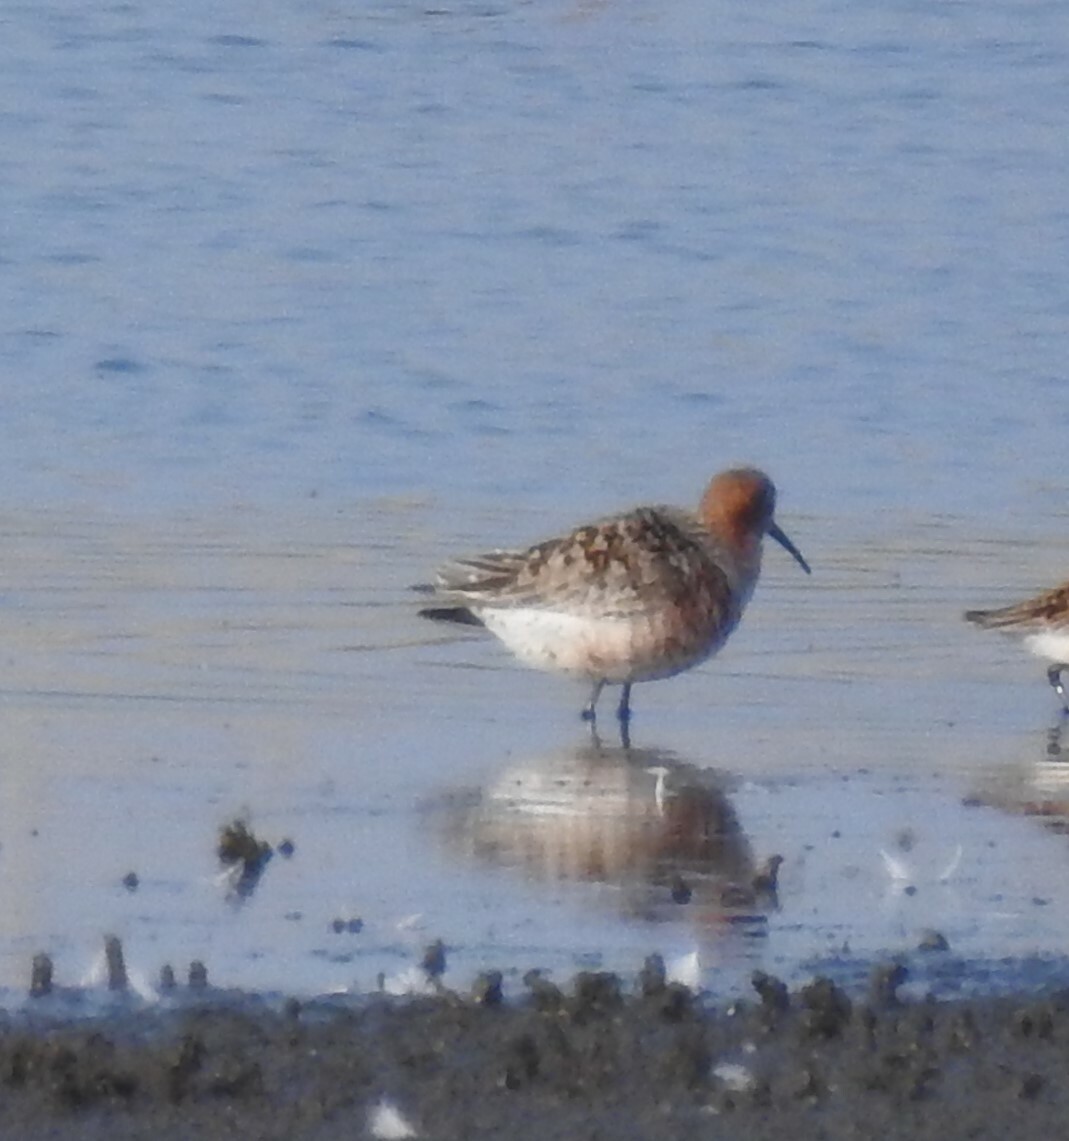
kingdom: Animalia
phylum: Chordata
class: Aves
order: Charadriiformes
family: Scolopacidae
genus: Calidris
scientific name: Calidris ferruginea
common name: Curlew sandpiper
